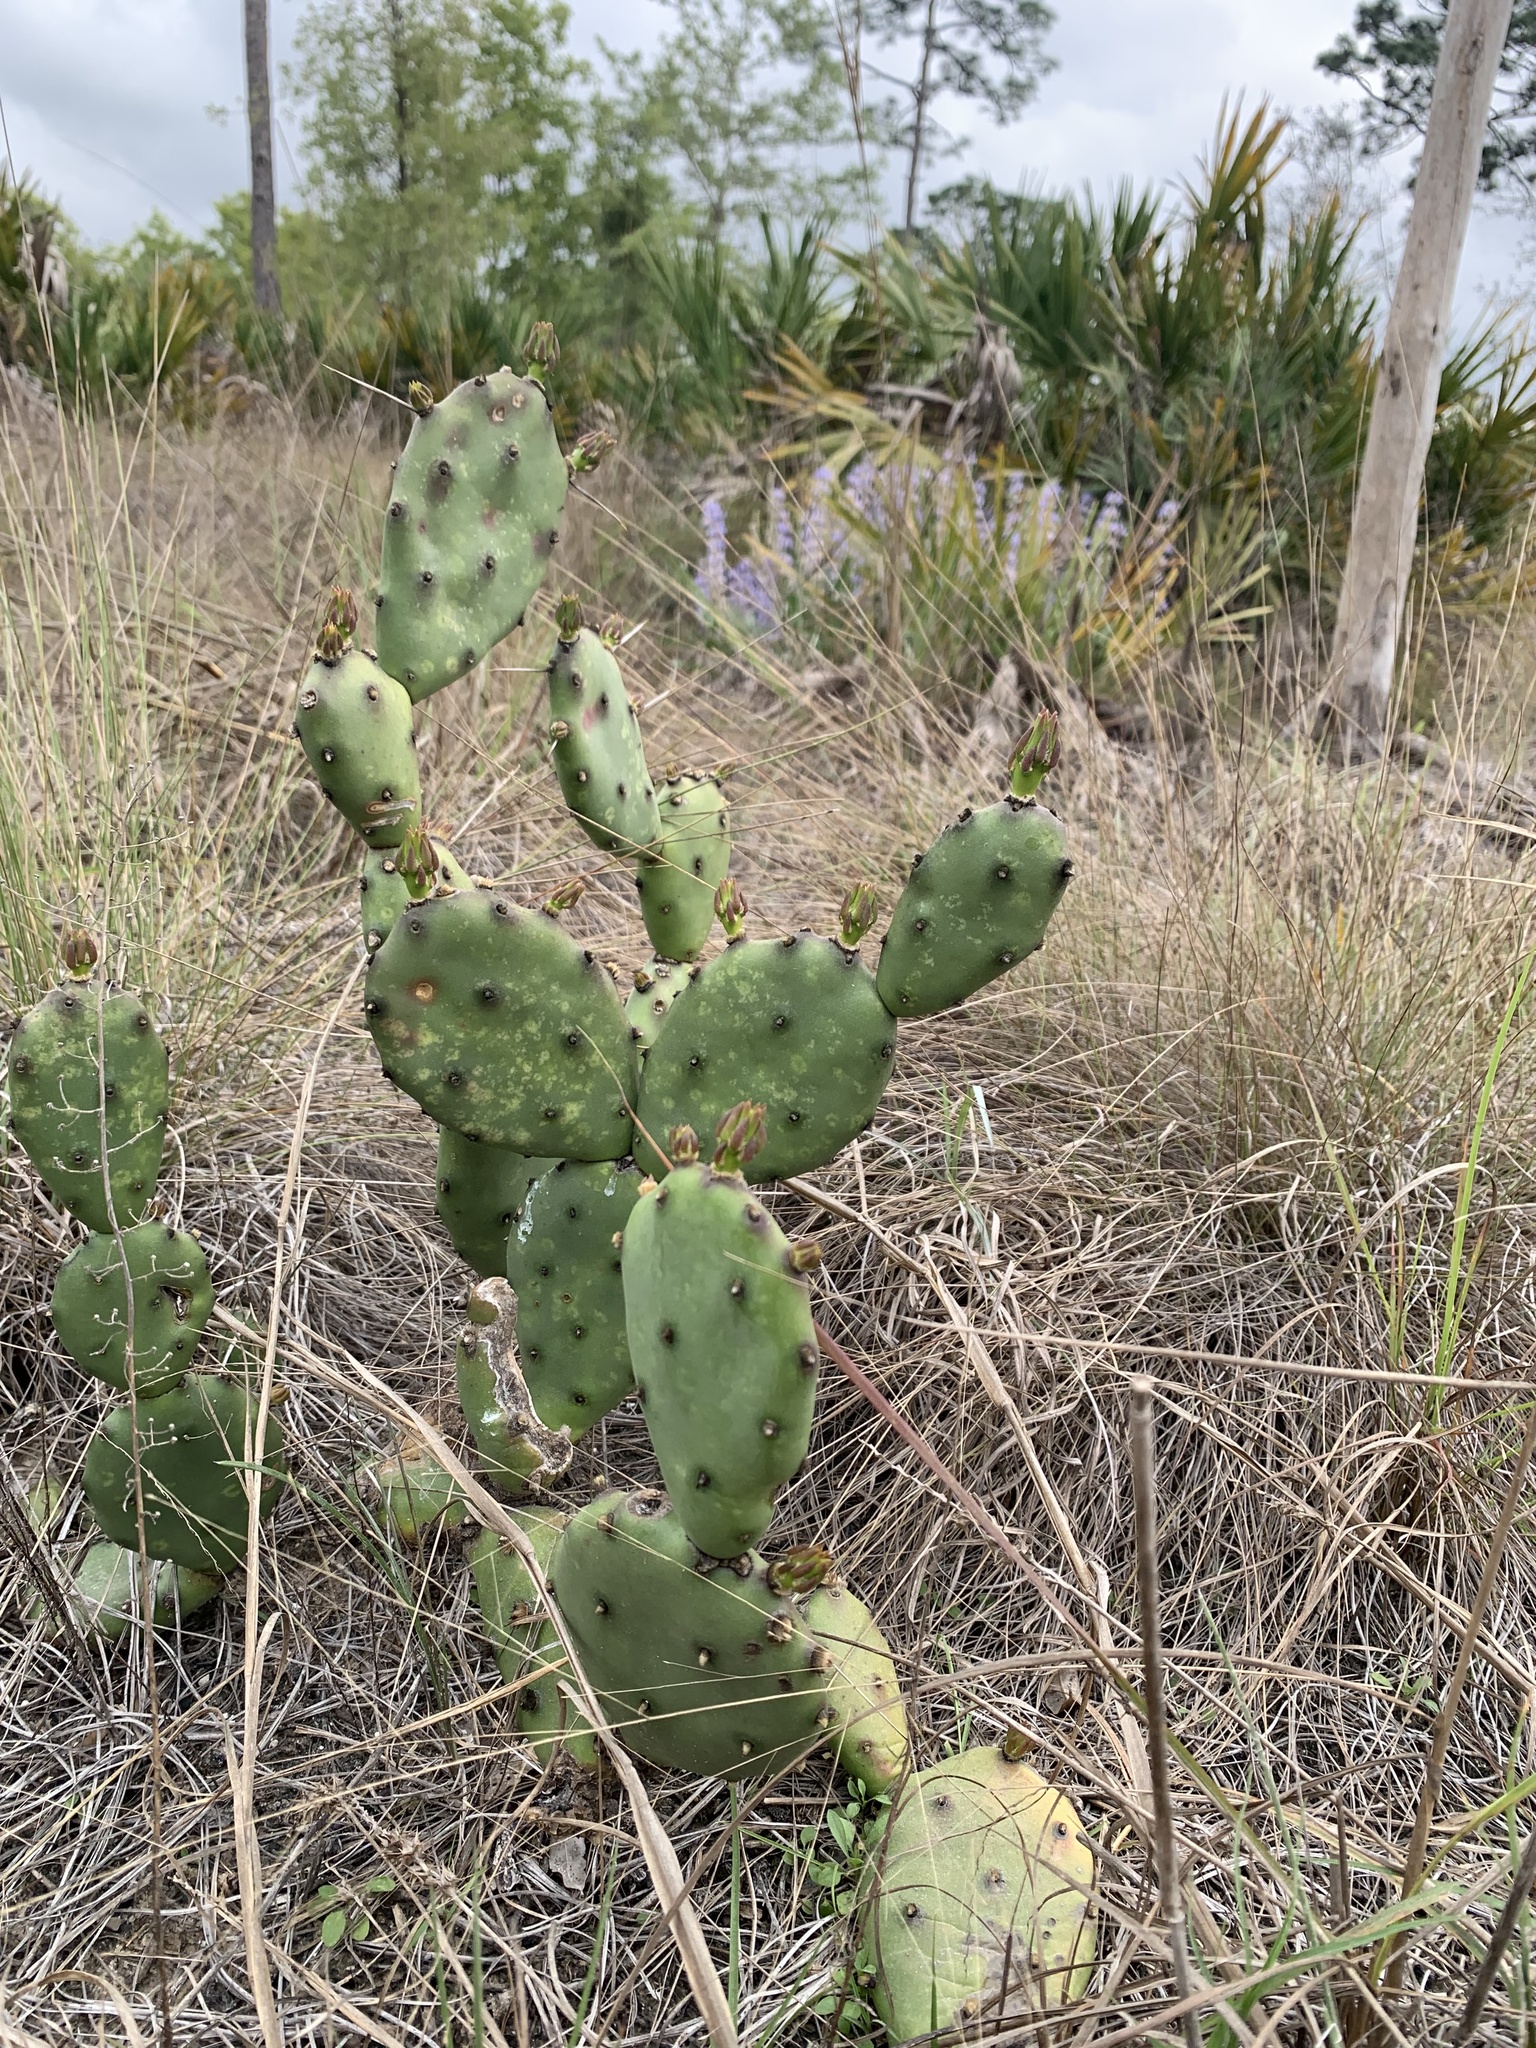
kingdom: Plantae
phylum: Tracheophyta
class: Magnoliopsida
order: Caryophyllales
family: Cactaceae
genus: Opuntia
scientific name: Opuntia austrina
